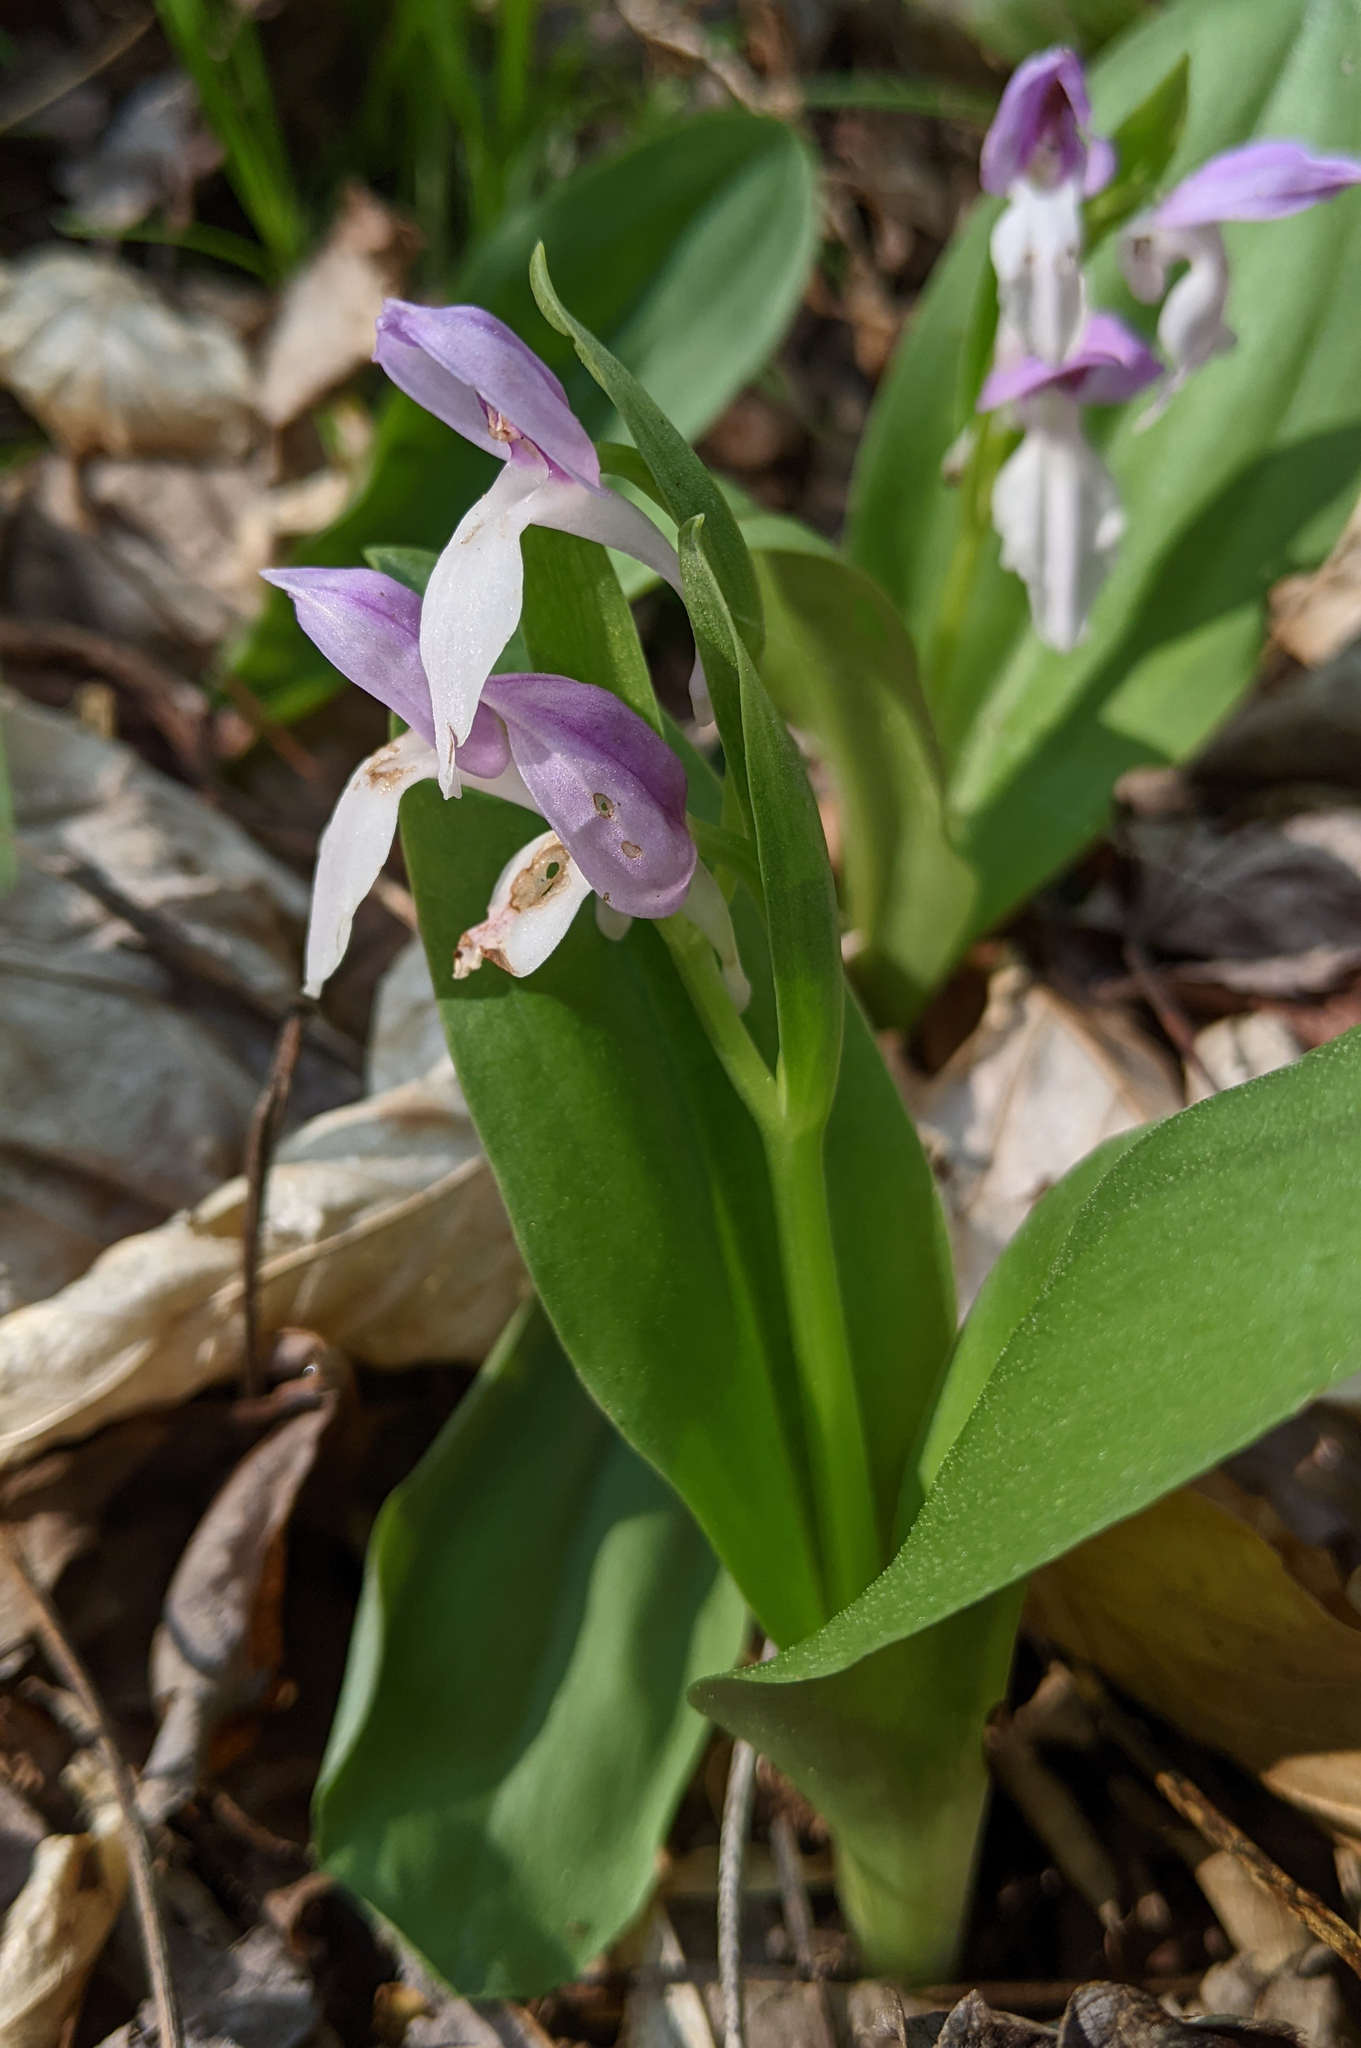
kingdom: Plantae
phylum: Tracheophyta
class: Liliopsida
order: Asparagales
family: Orchidaceae
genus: Galearis
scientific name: Galearis spectabilis
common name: Purple-hooded orchis
